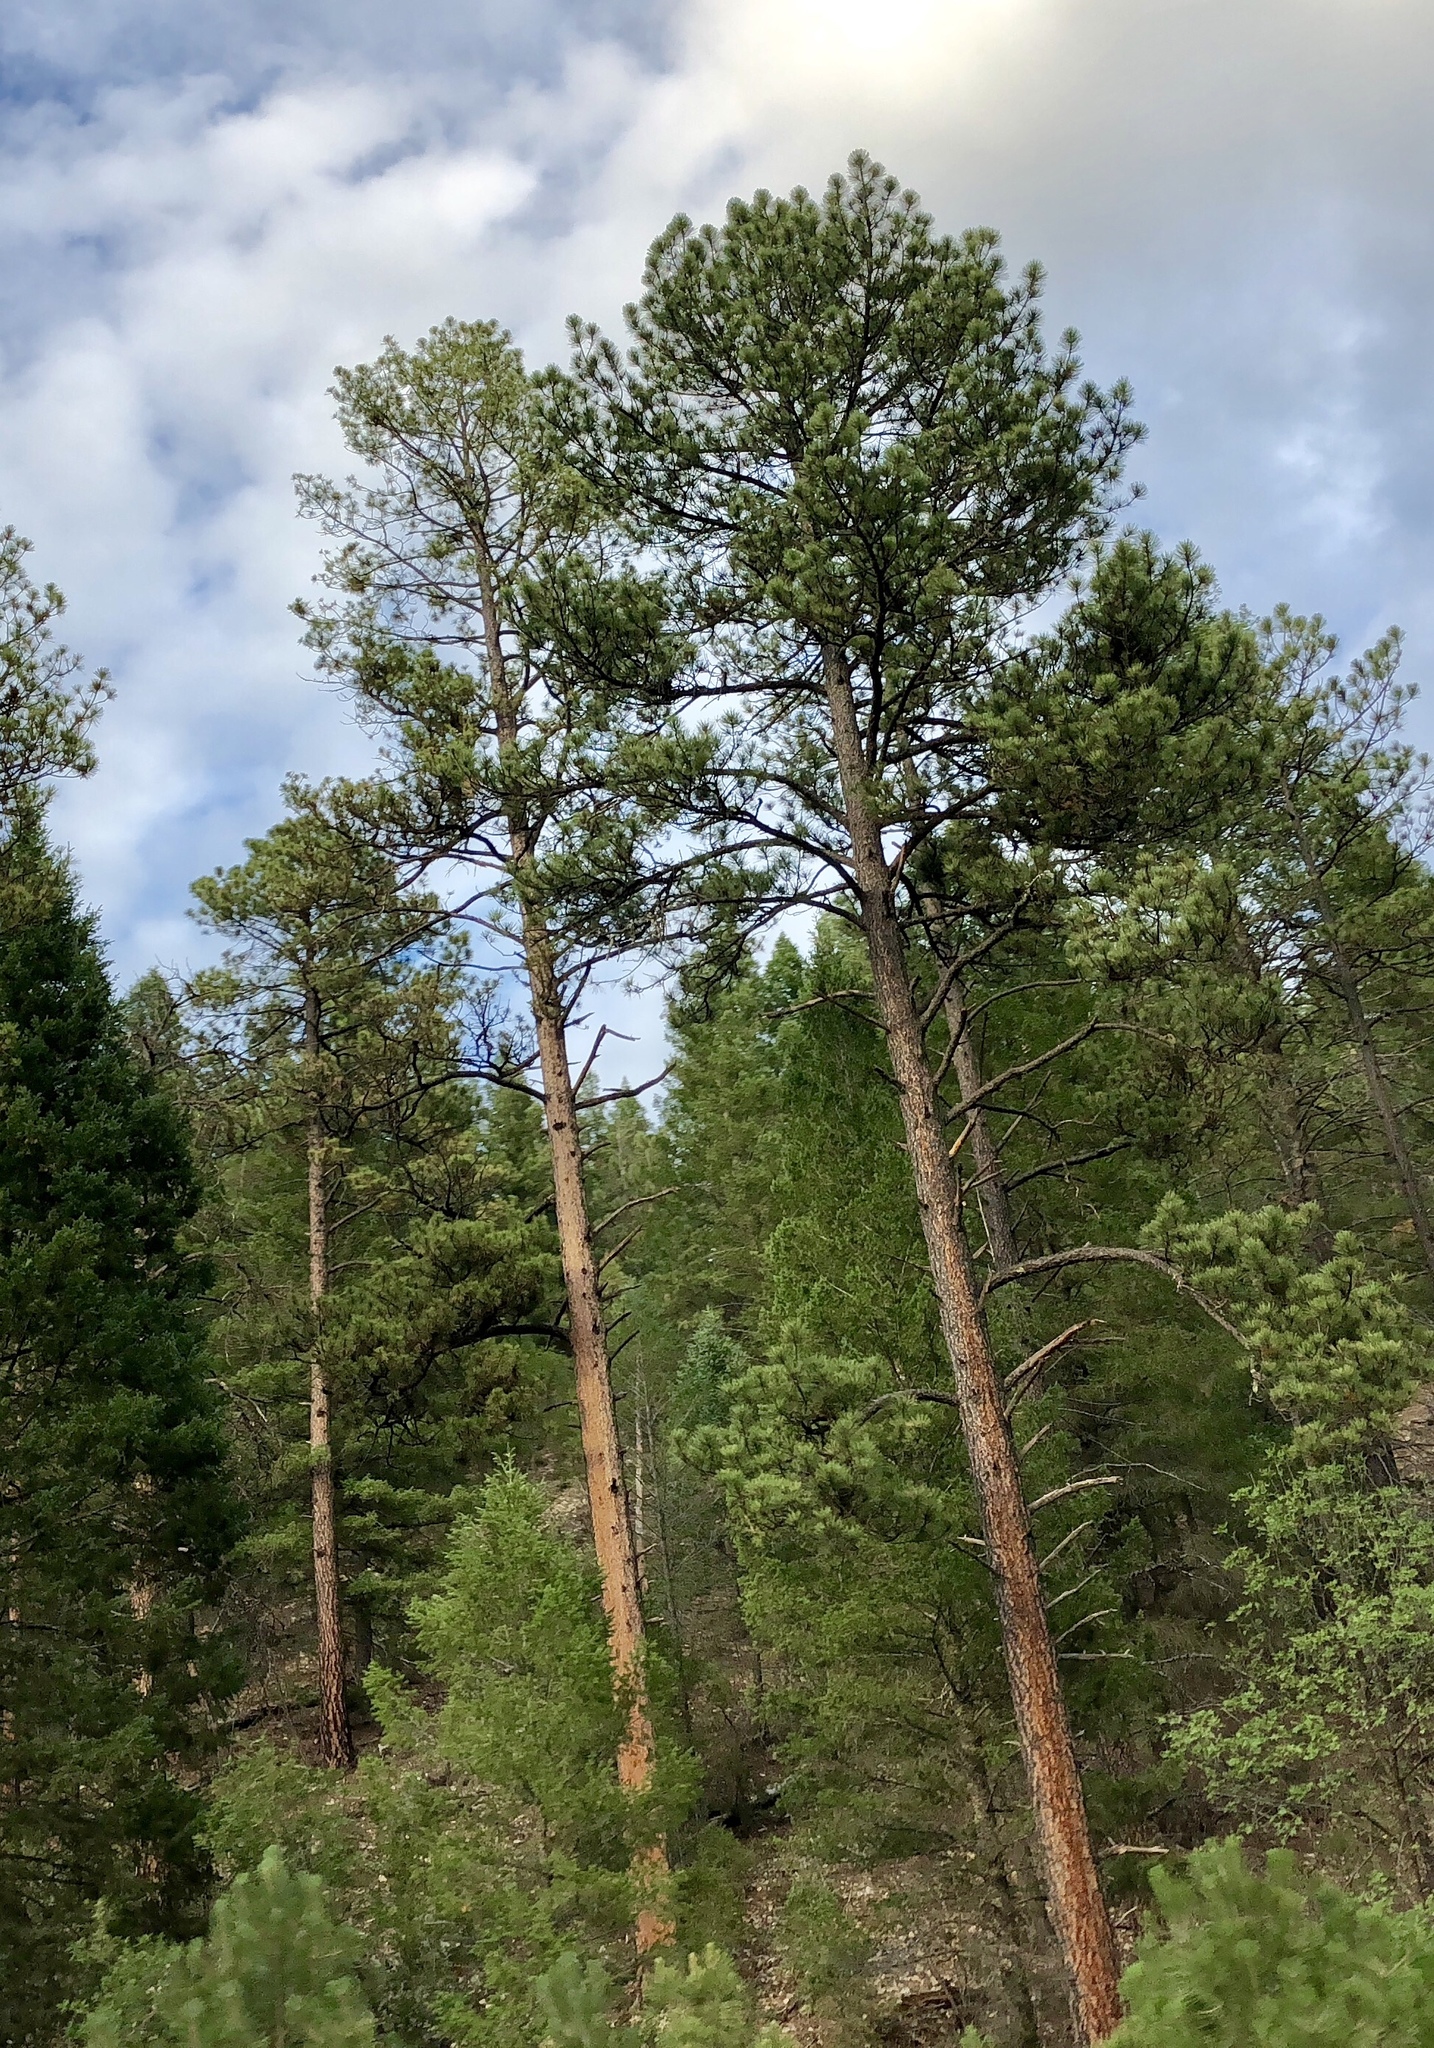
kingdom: Plantae
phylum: Tracheophyta
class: Pinopsida
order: Pinales
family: Pinaceae
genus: Pinus
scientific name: Pinus ponderosa
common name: Western yellow-pine
